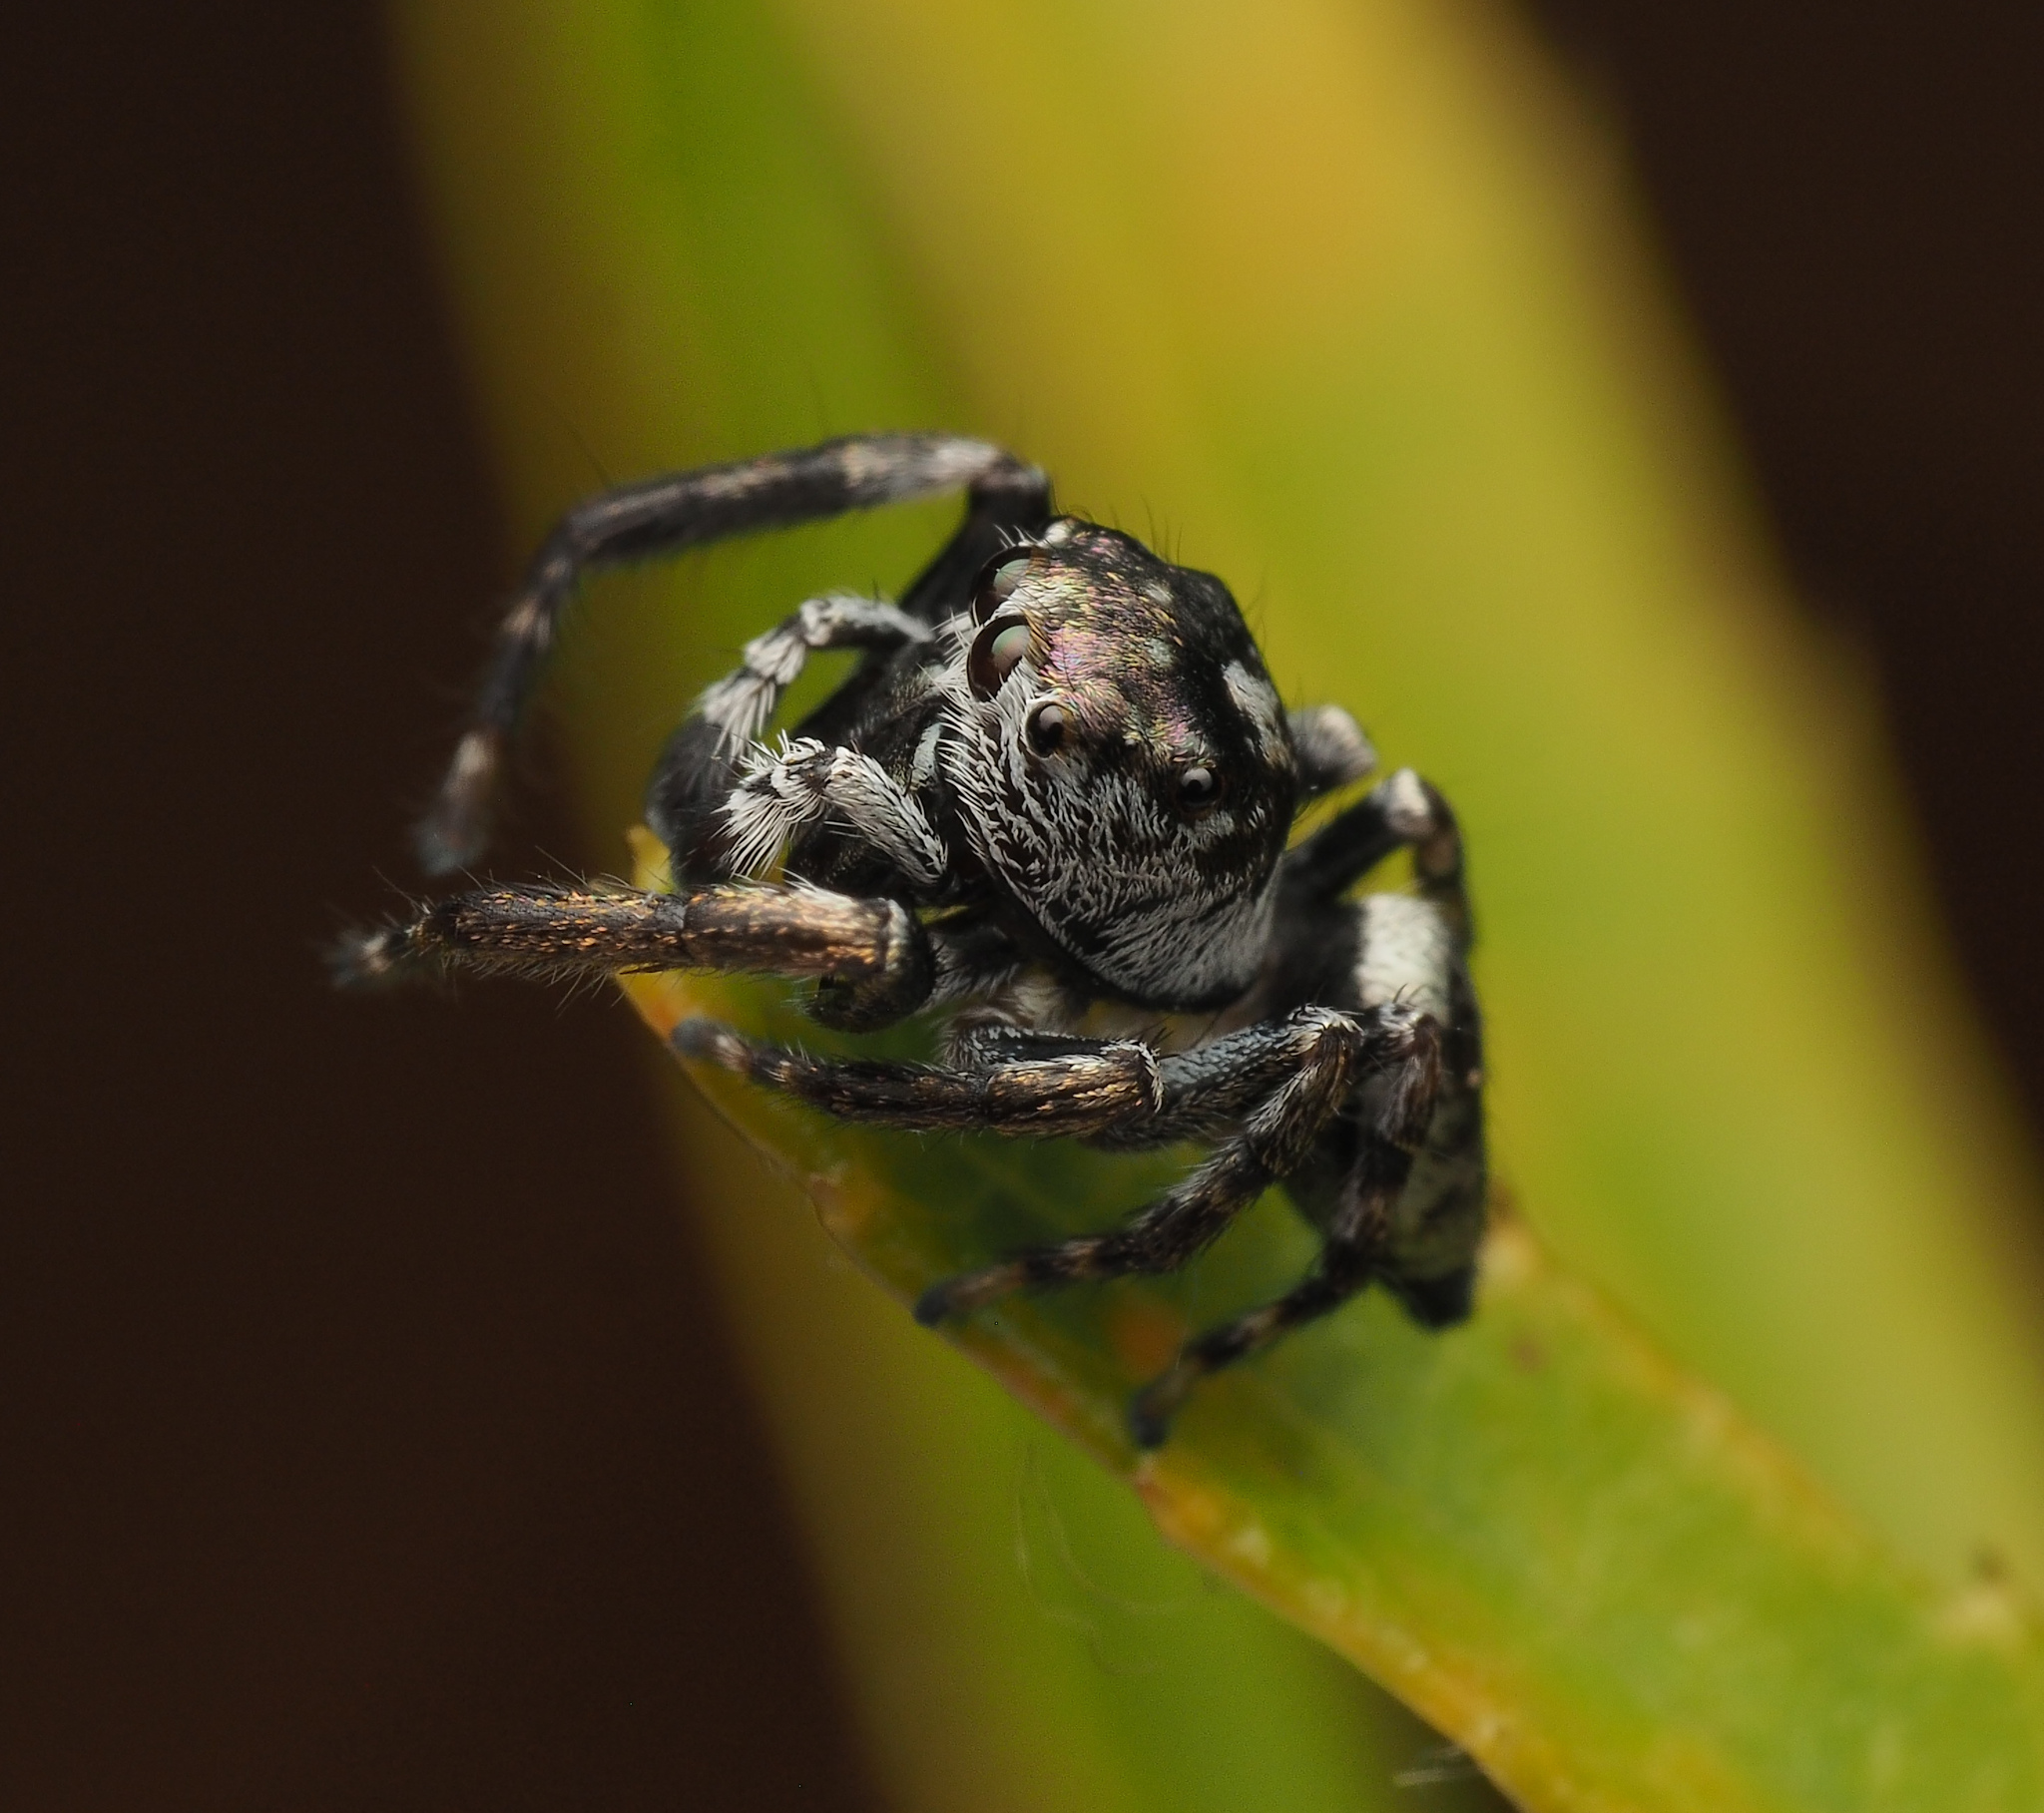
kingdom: Animalia
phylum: Arthropoda
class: Arachnida
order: Araneae
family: Salticidae
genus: Euryattus
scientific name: Euryattus bleekeri
